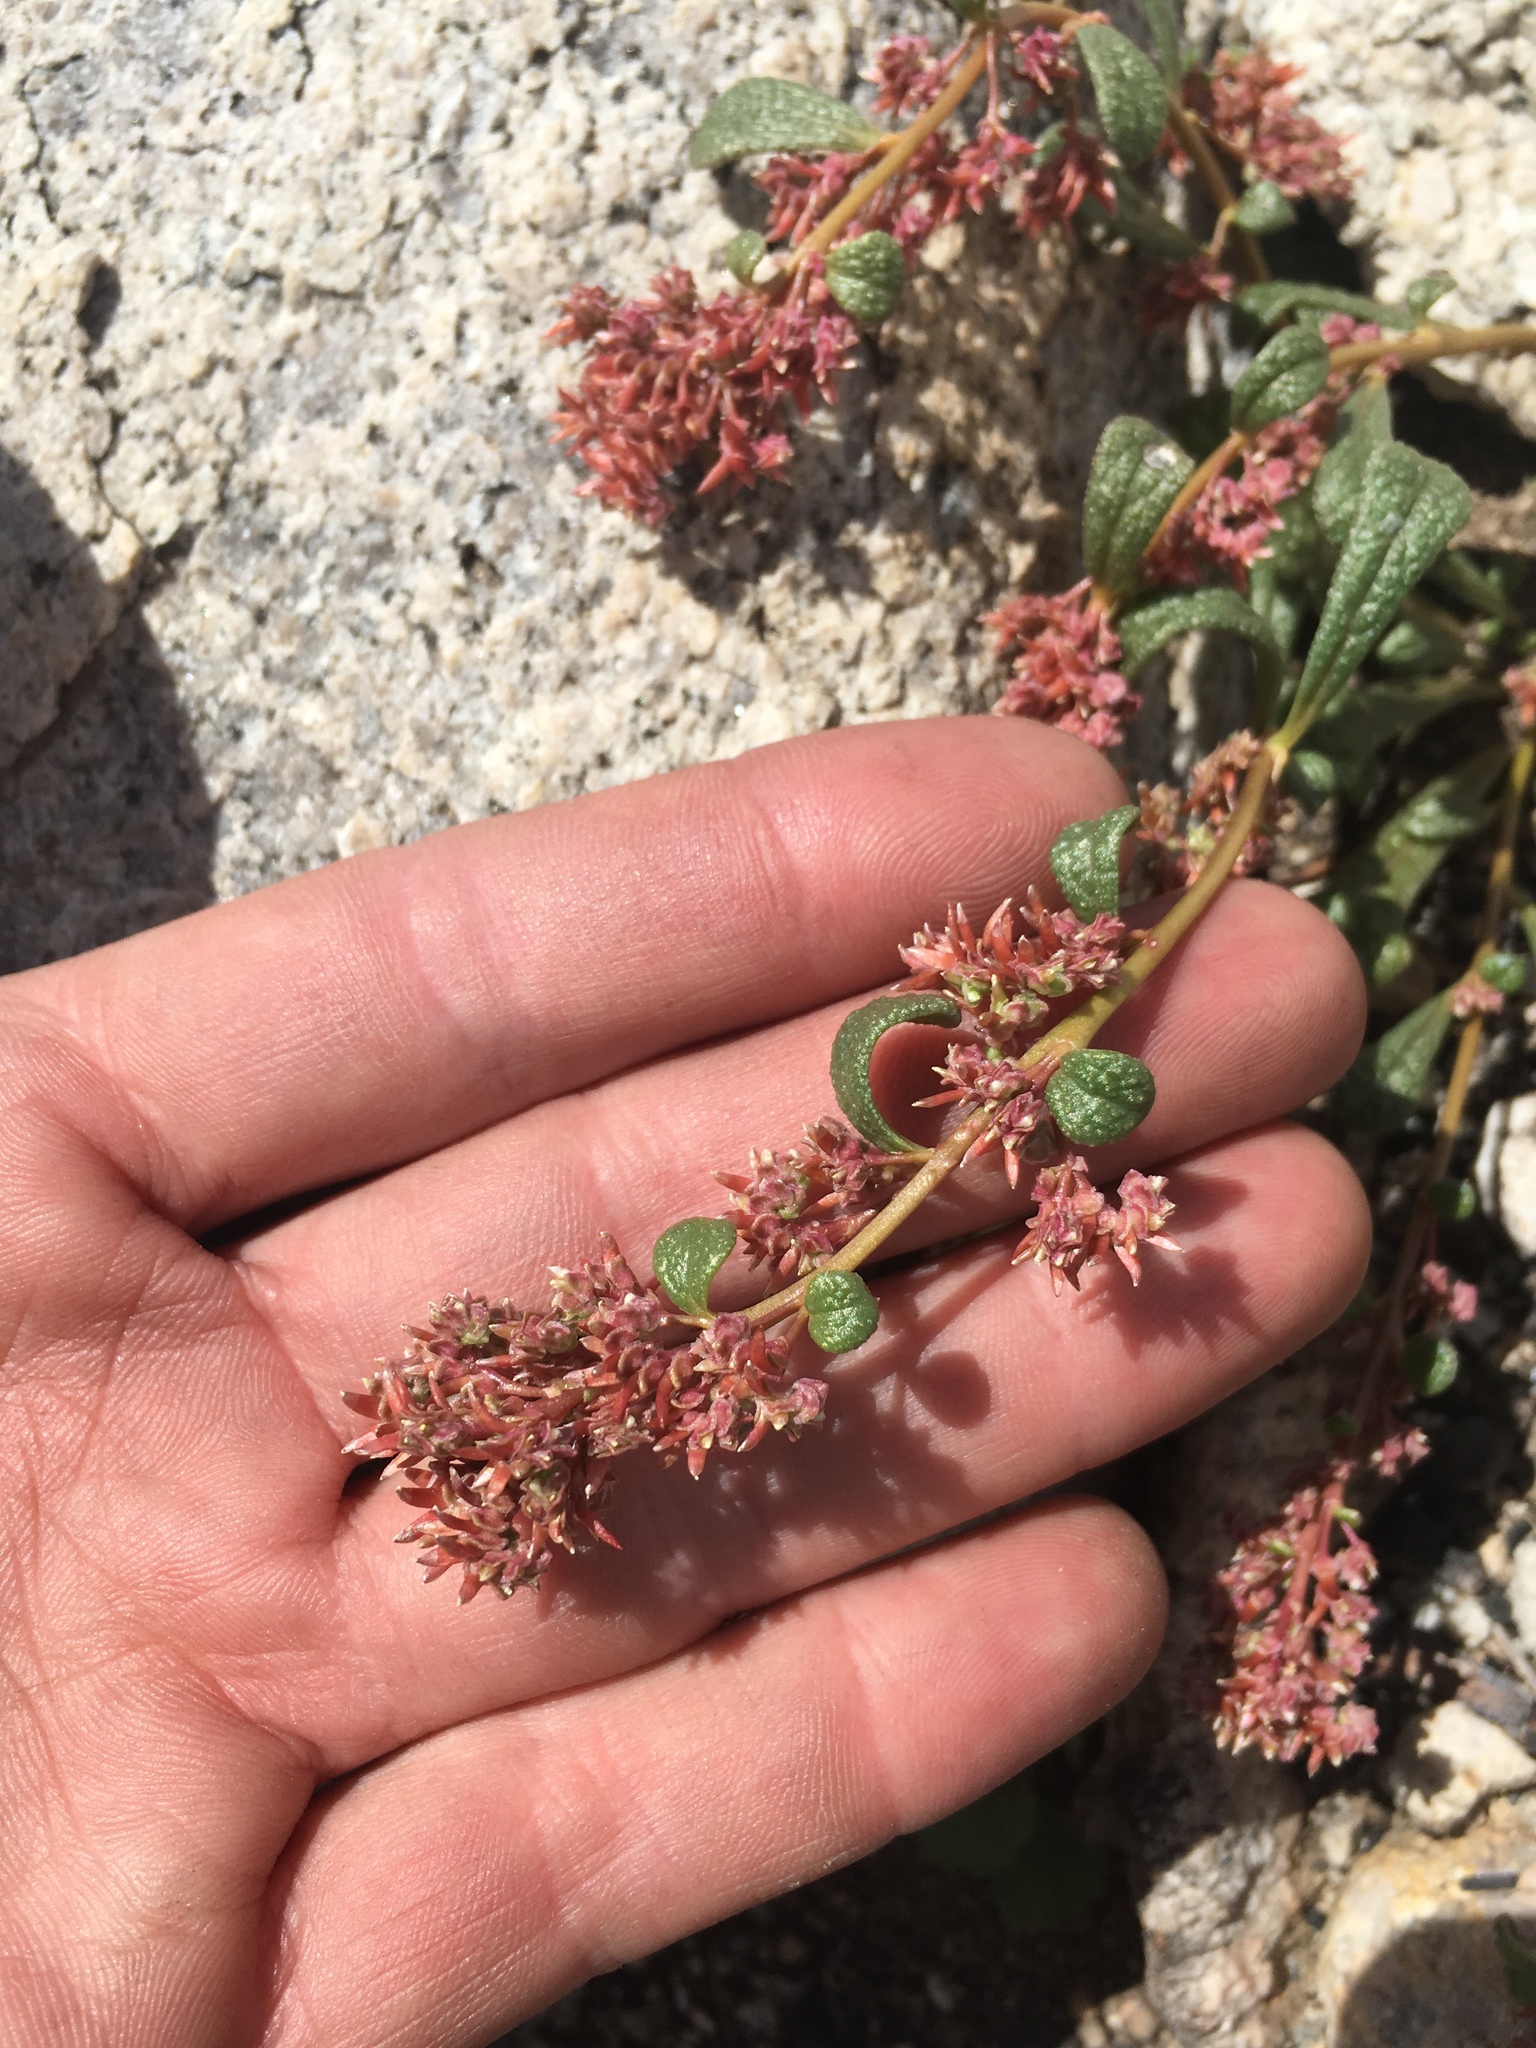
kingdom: Plantae
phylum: Tracheophyta
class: Magnoliopsida
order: Caryophyllales
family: Montiaceae
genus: Calyptridium
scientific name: Calyptridium monandrum
